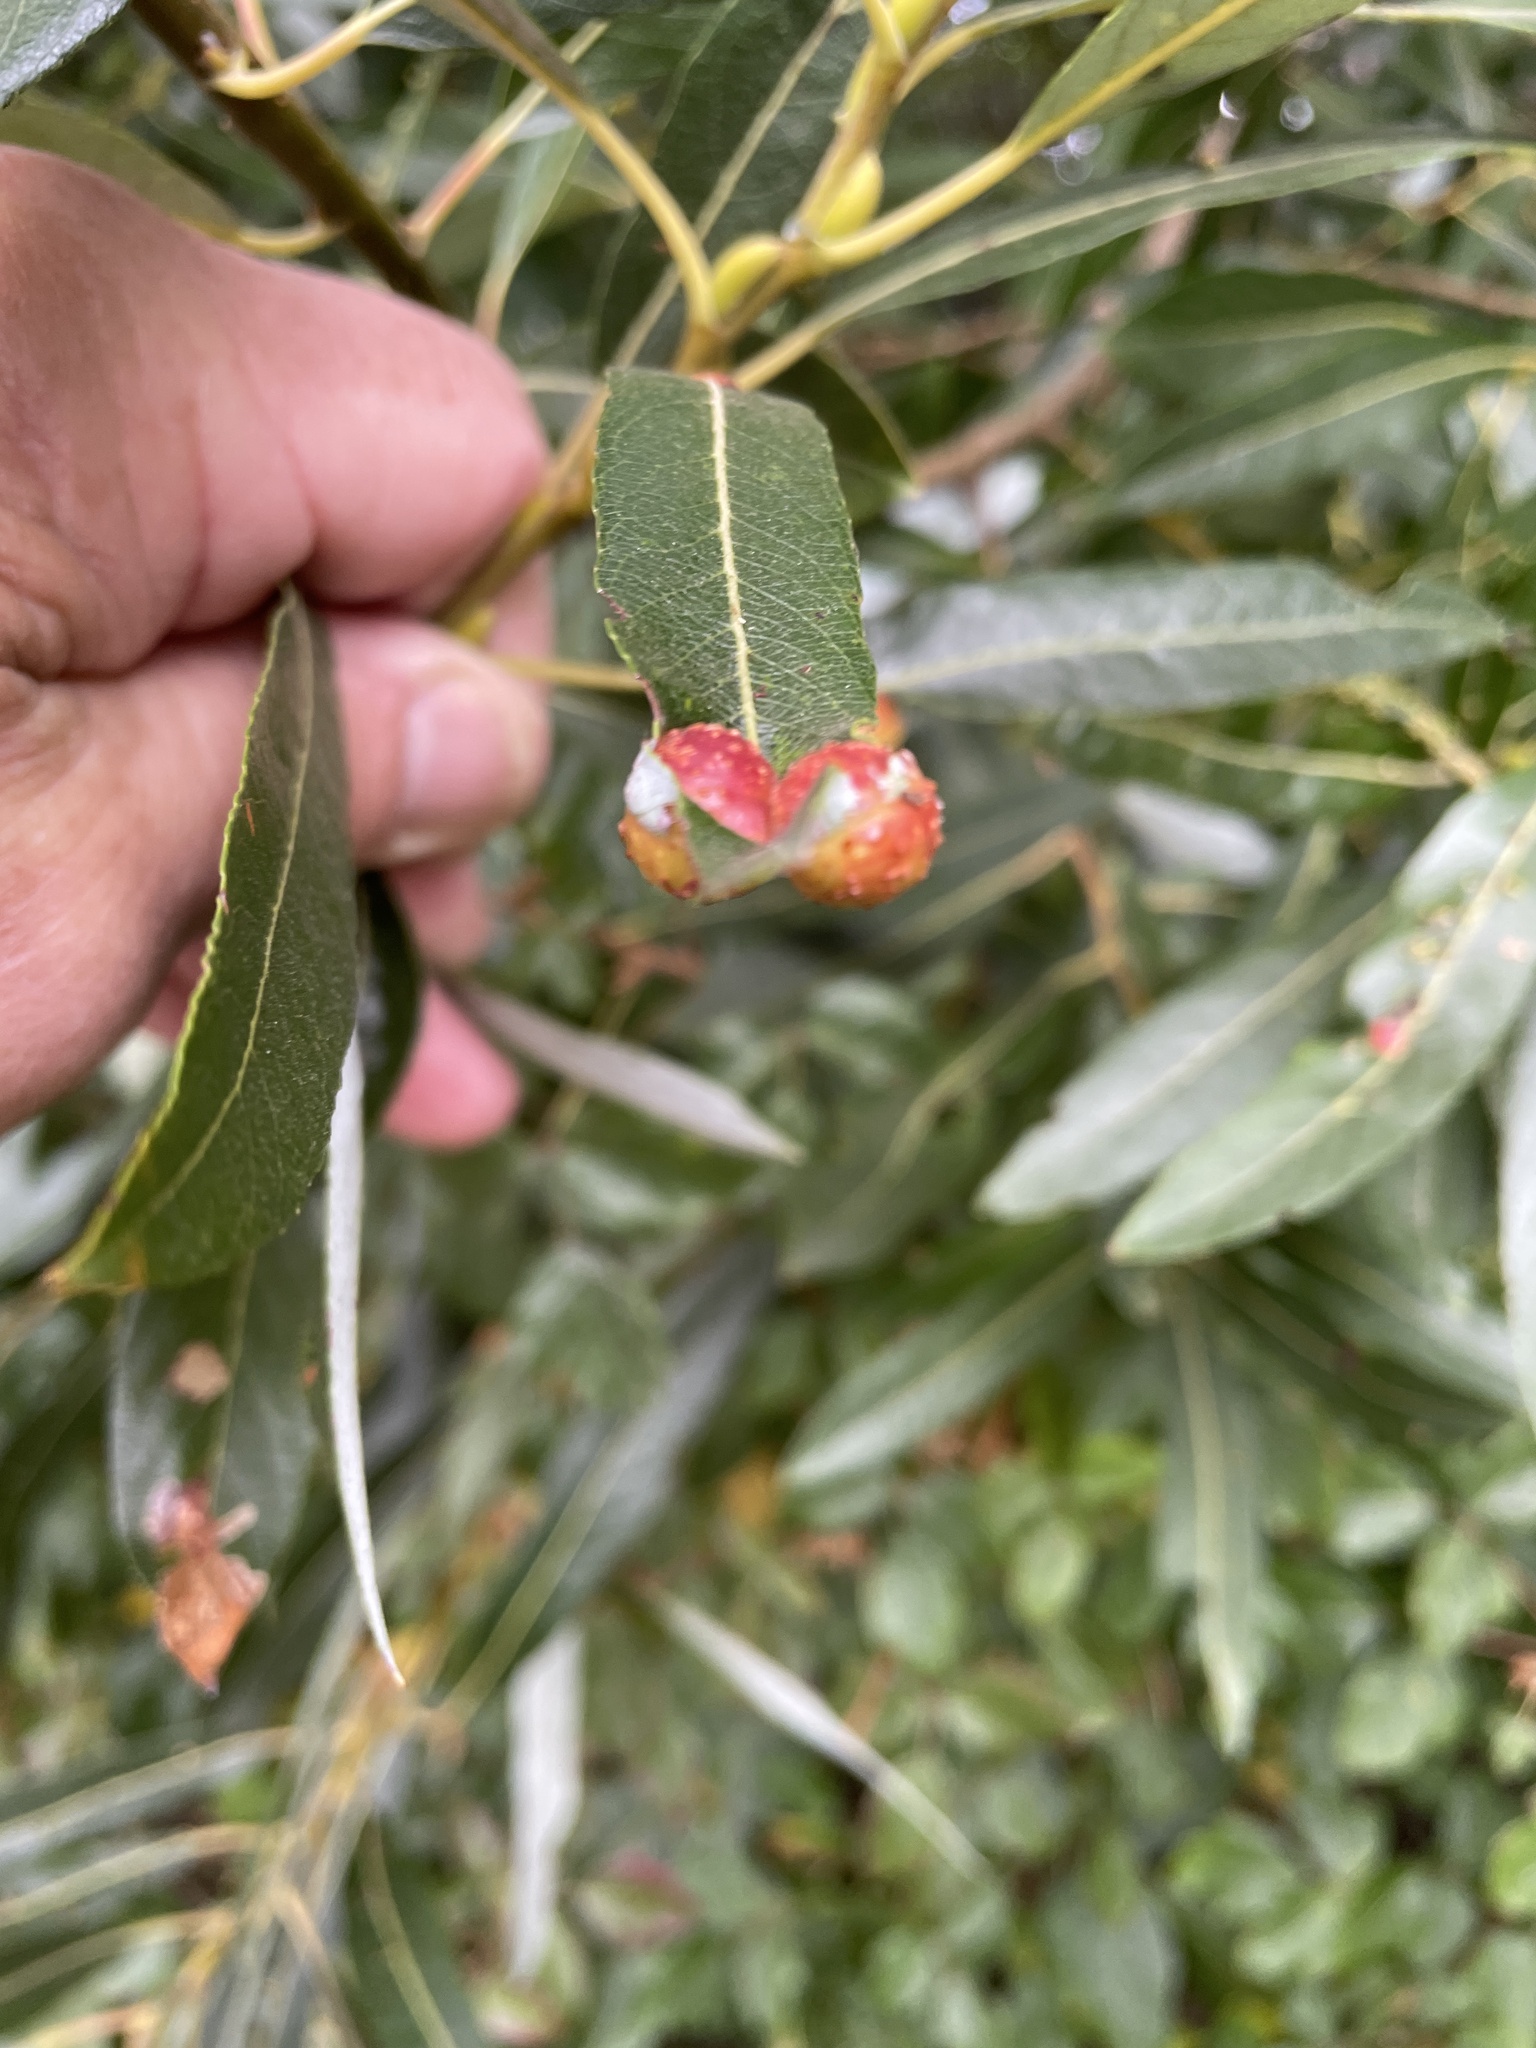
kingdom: Animalia
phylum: Arthropoda
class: Insecta
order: Hymenoptera
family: Tenthredinidae
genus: Euura
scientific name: Euura
